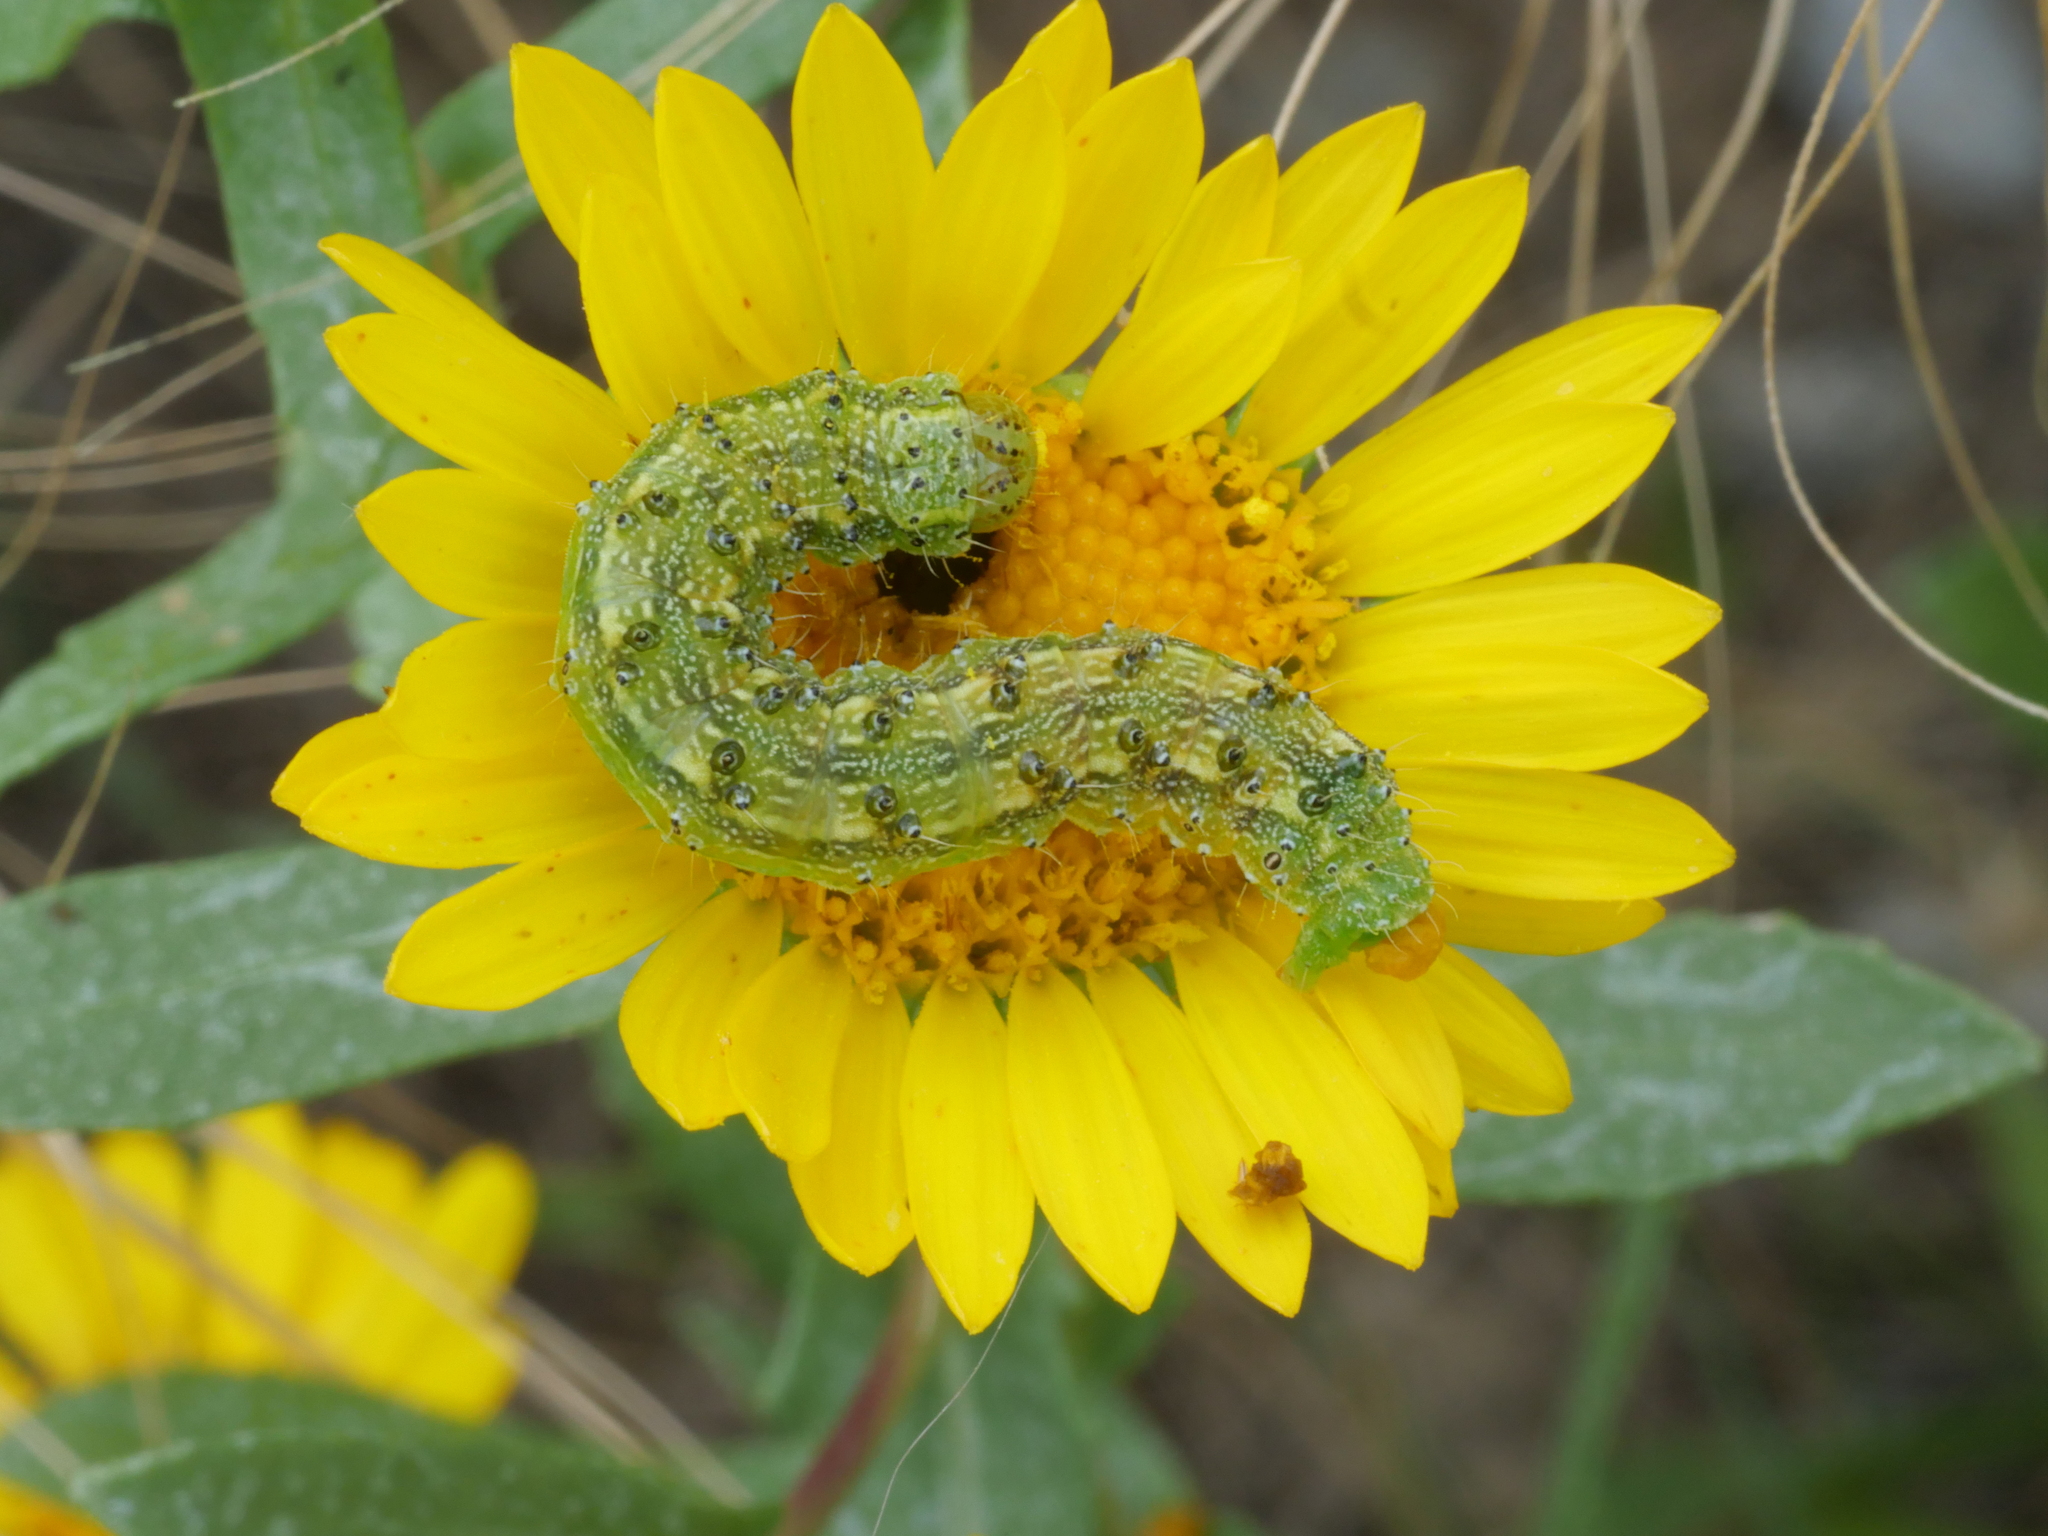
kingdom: Animalia
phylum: Arthropoda
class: Insecta
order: Lepidoptera
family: Noctuidae
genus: Heliothis
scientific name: Heliothis phloxiphaga
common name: Darker spotted straw moth
